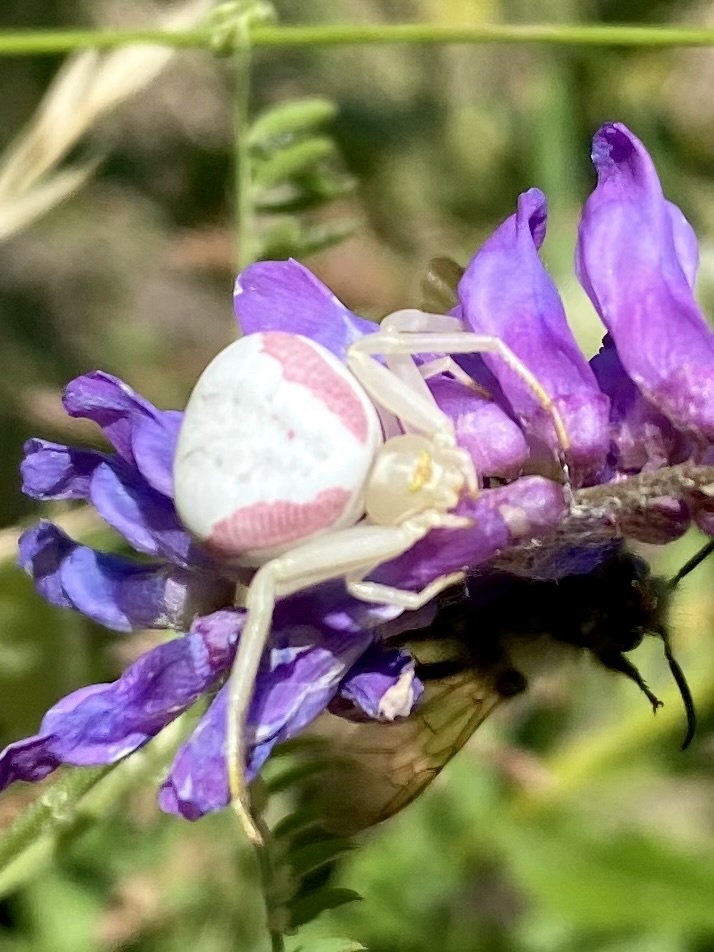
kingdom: Animalia
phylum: Arthropoda
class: Arachnida
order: Araneae
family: Thomisidae
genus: Misumena
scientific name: Misumena vatia
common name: Goldenrod crab spider
